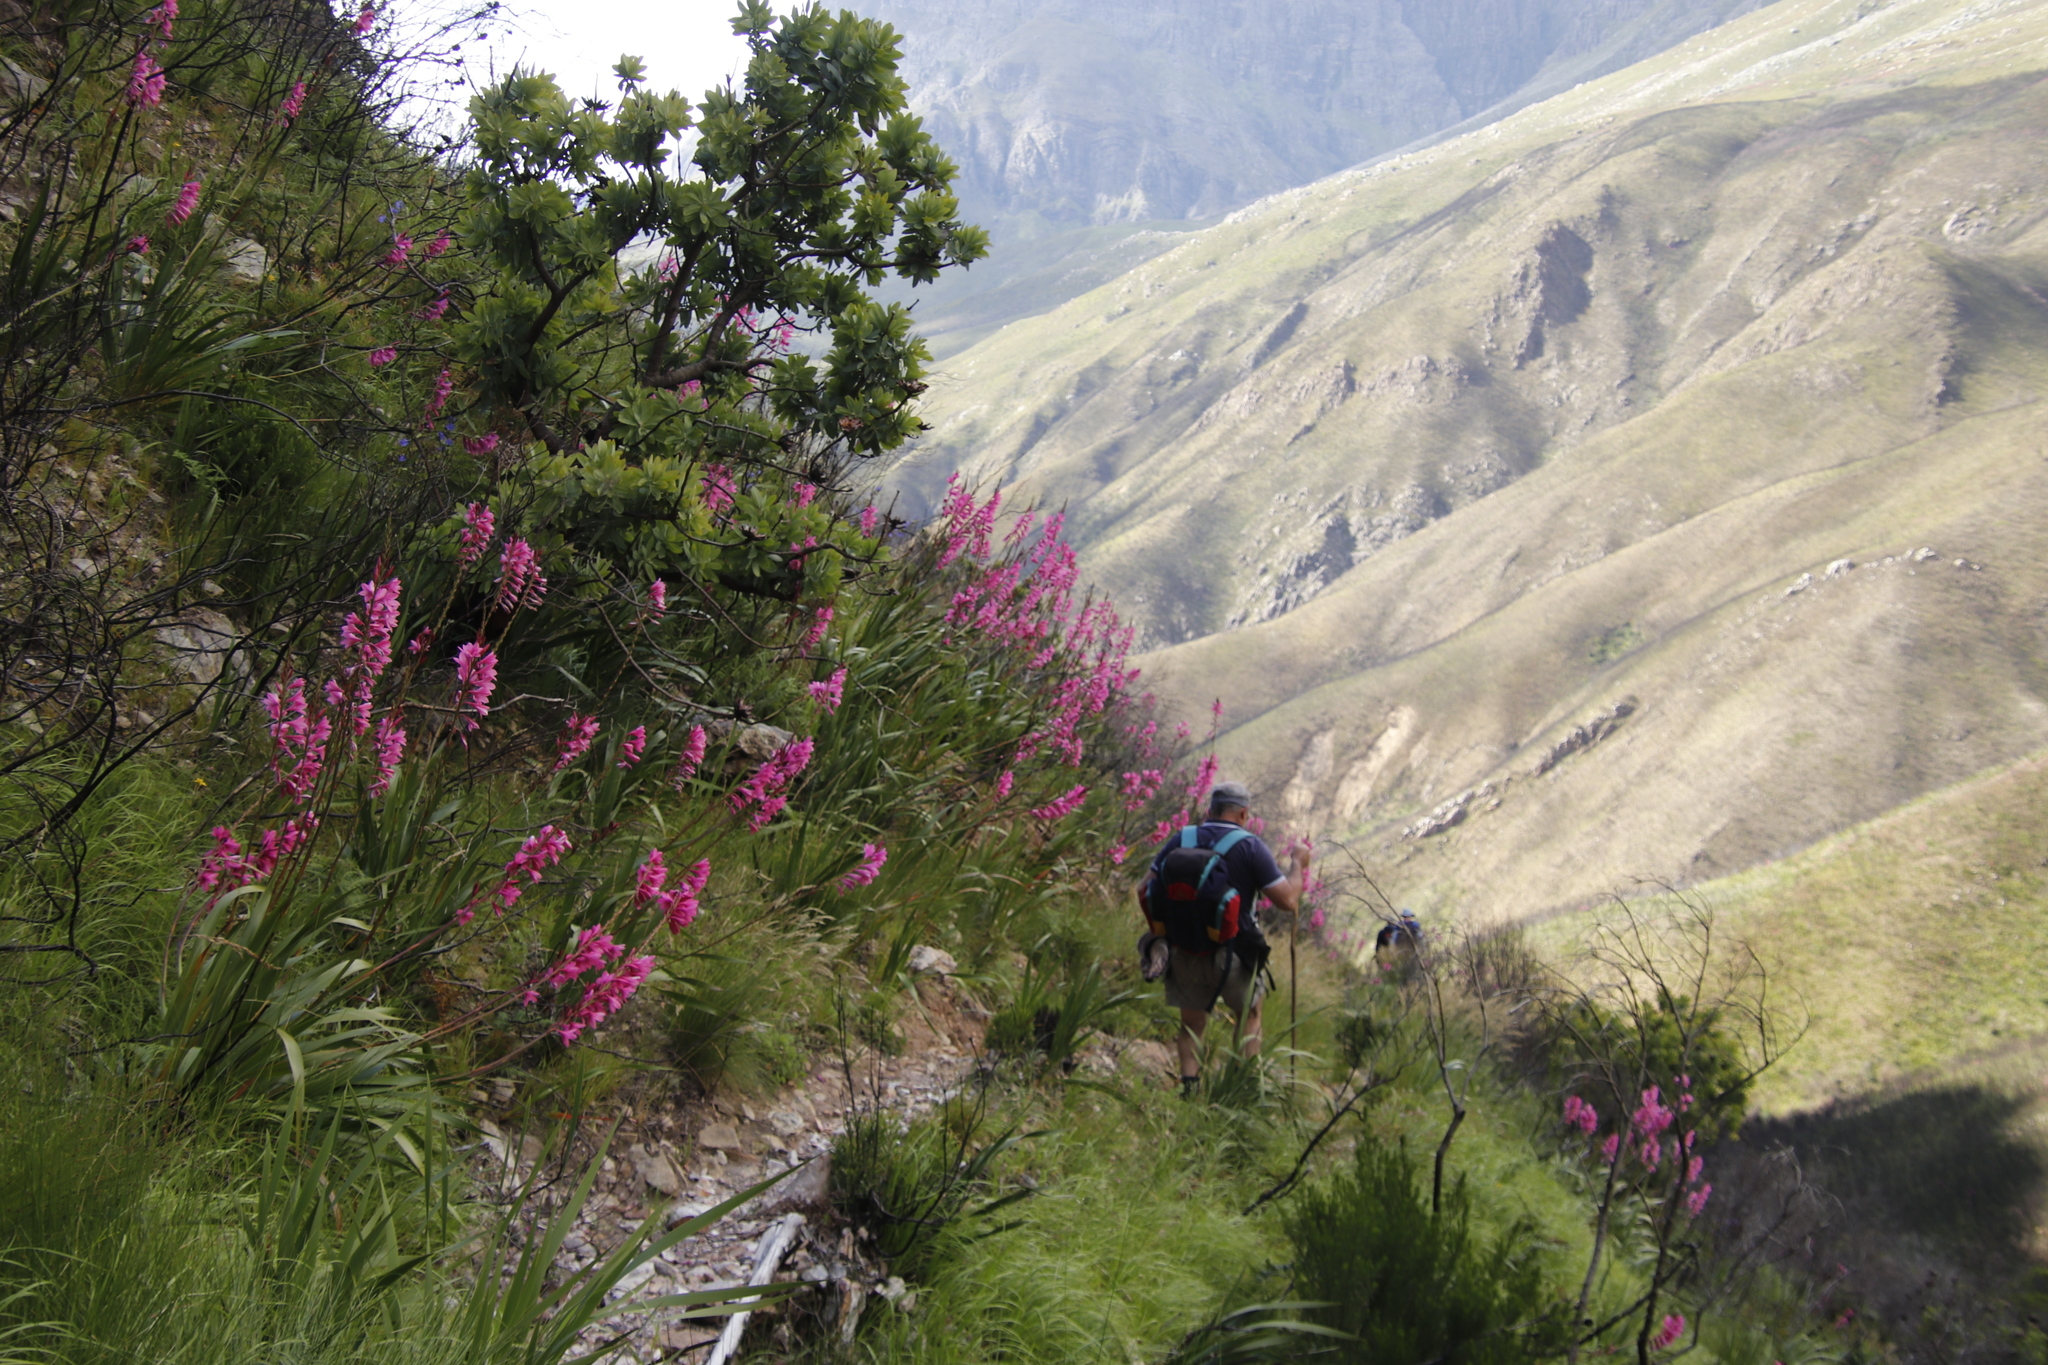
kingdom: Plantae
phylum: Tracheophyta
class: Liliopsida
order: Asparagales
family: Iridaceae
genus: Watsonia
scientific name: Watsonia borbonica
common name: Bugle-lily
